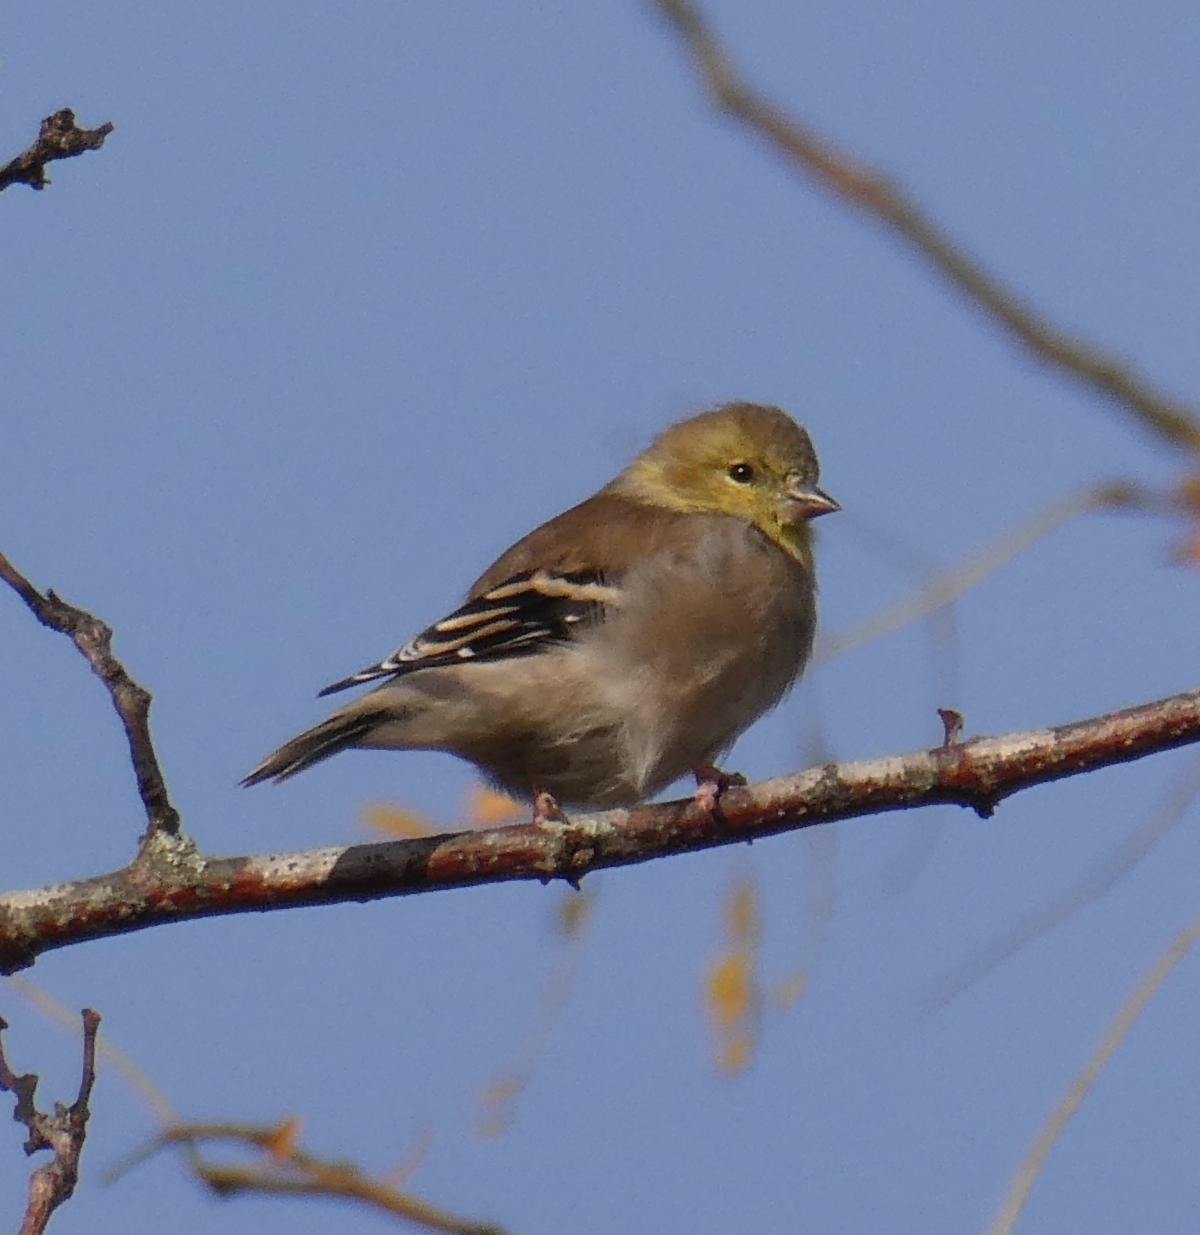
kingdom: Animalia
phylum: Chordata
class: Aves
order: Passeriformes
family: Fringillidae
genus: Spinus
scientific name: Spinus tristis
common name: American goldfinch
